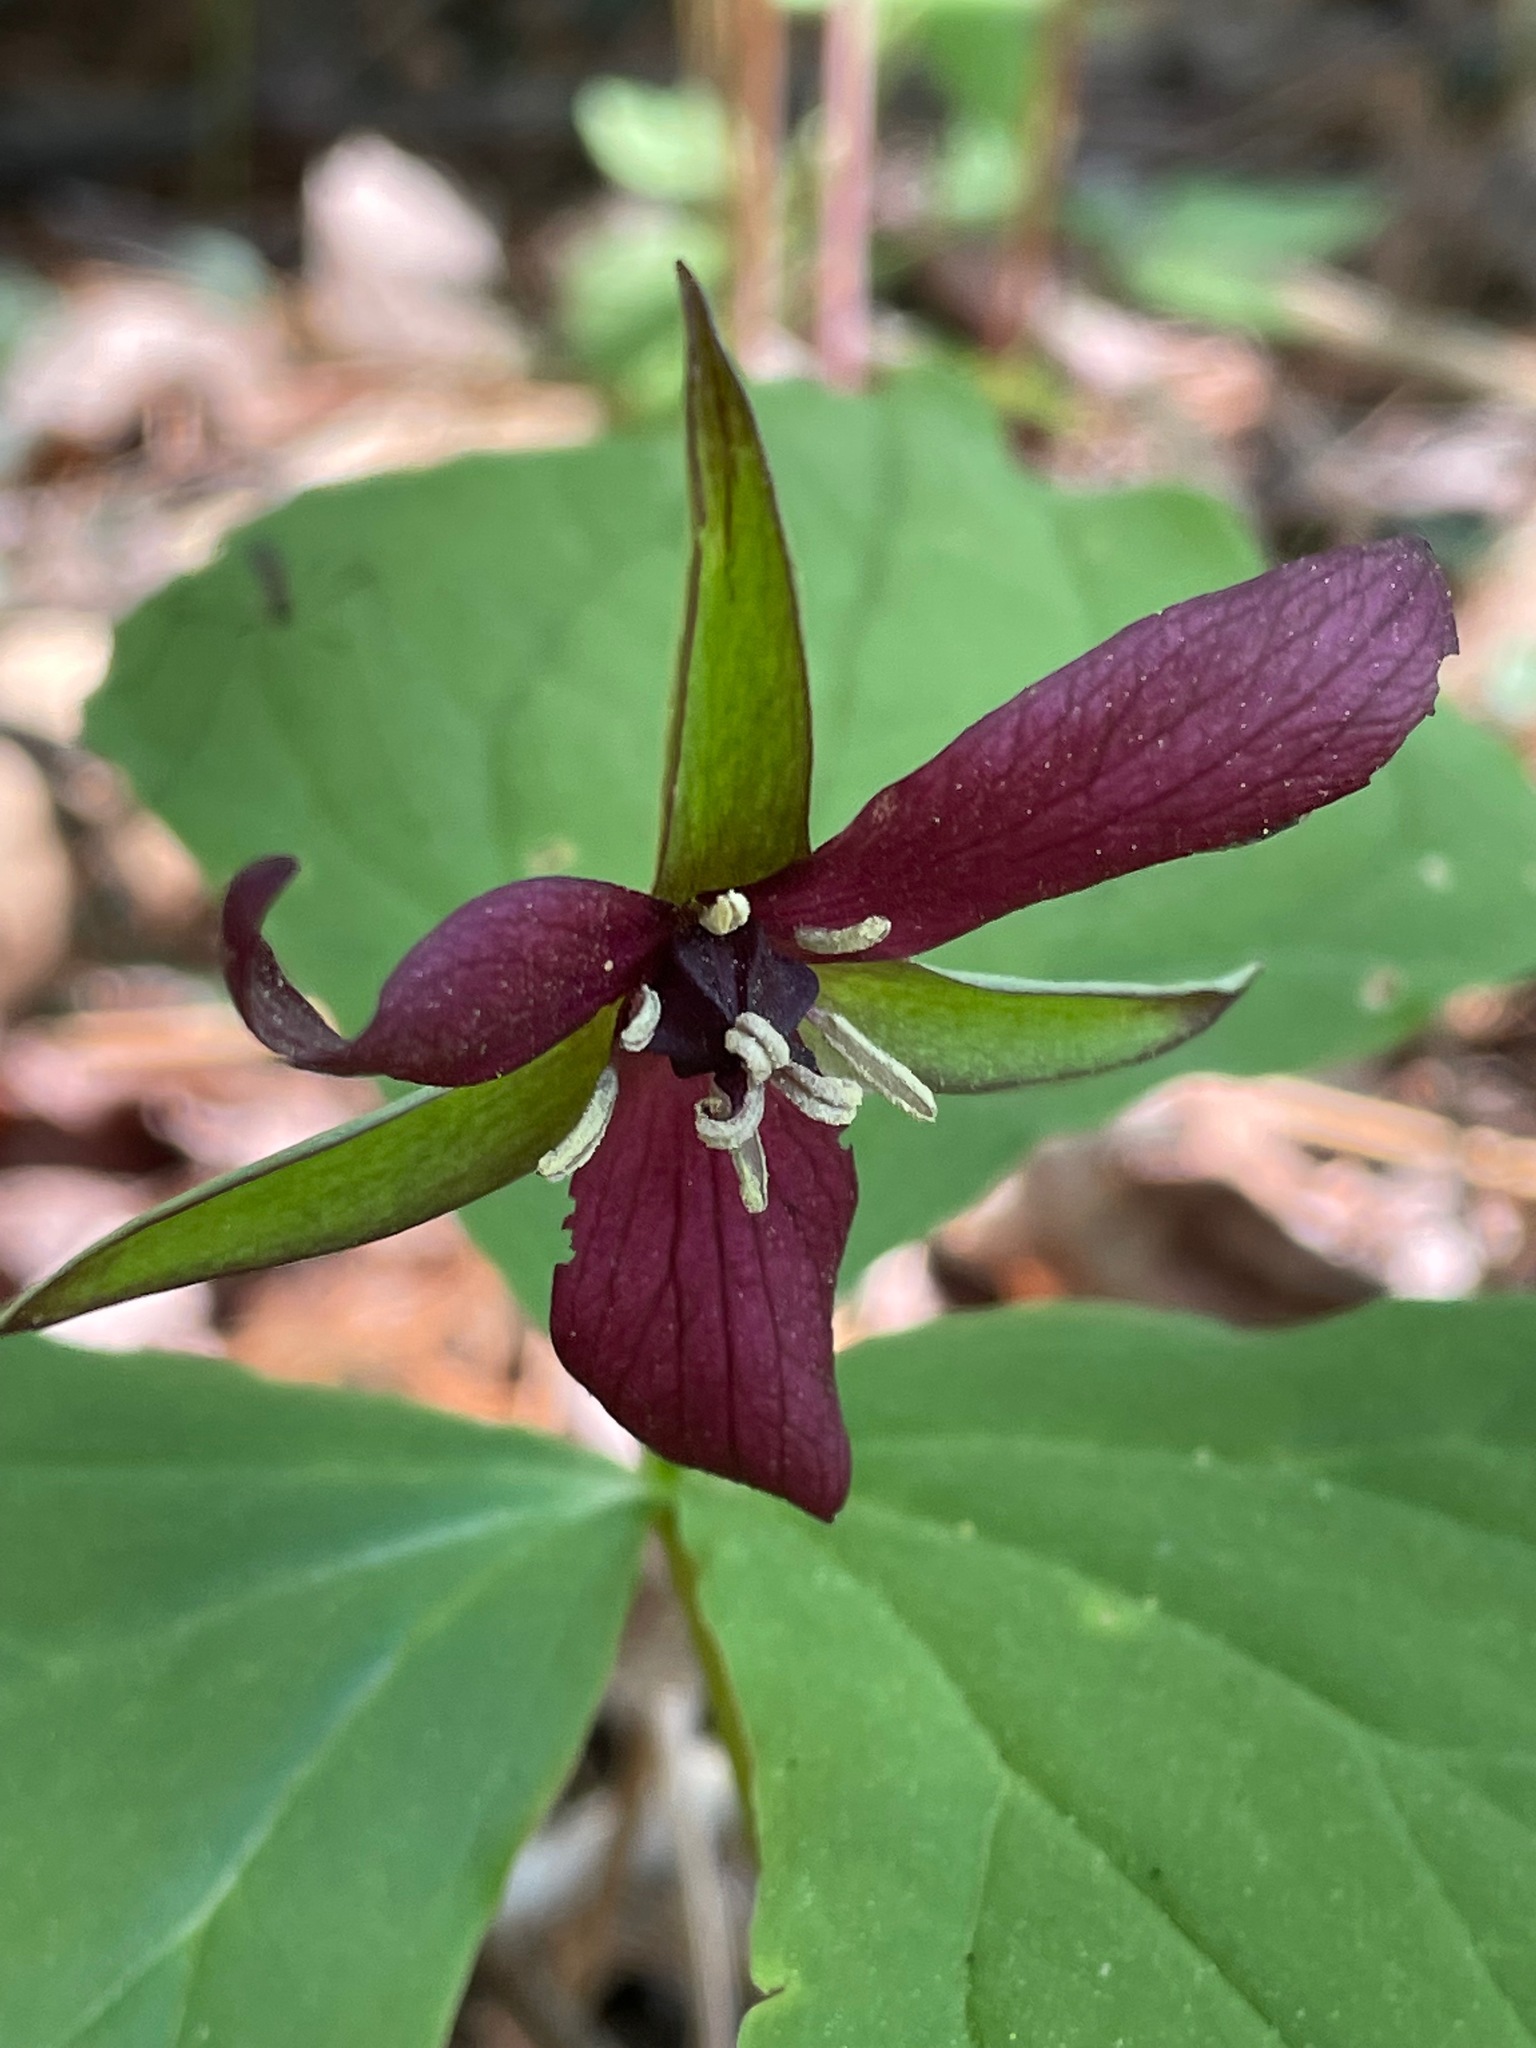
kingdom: Plantae
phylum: Tracheophyta
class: Liliopsida
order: Liliales
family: Melanthiaceae
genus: Trillium
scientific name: Trillium erectum
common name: Purple trillium
